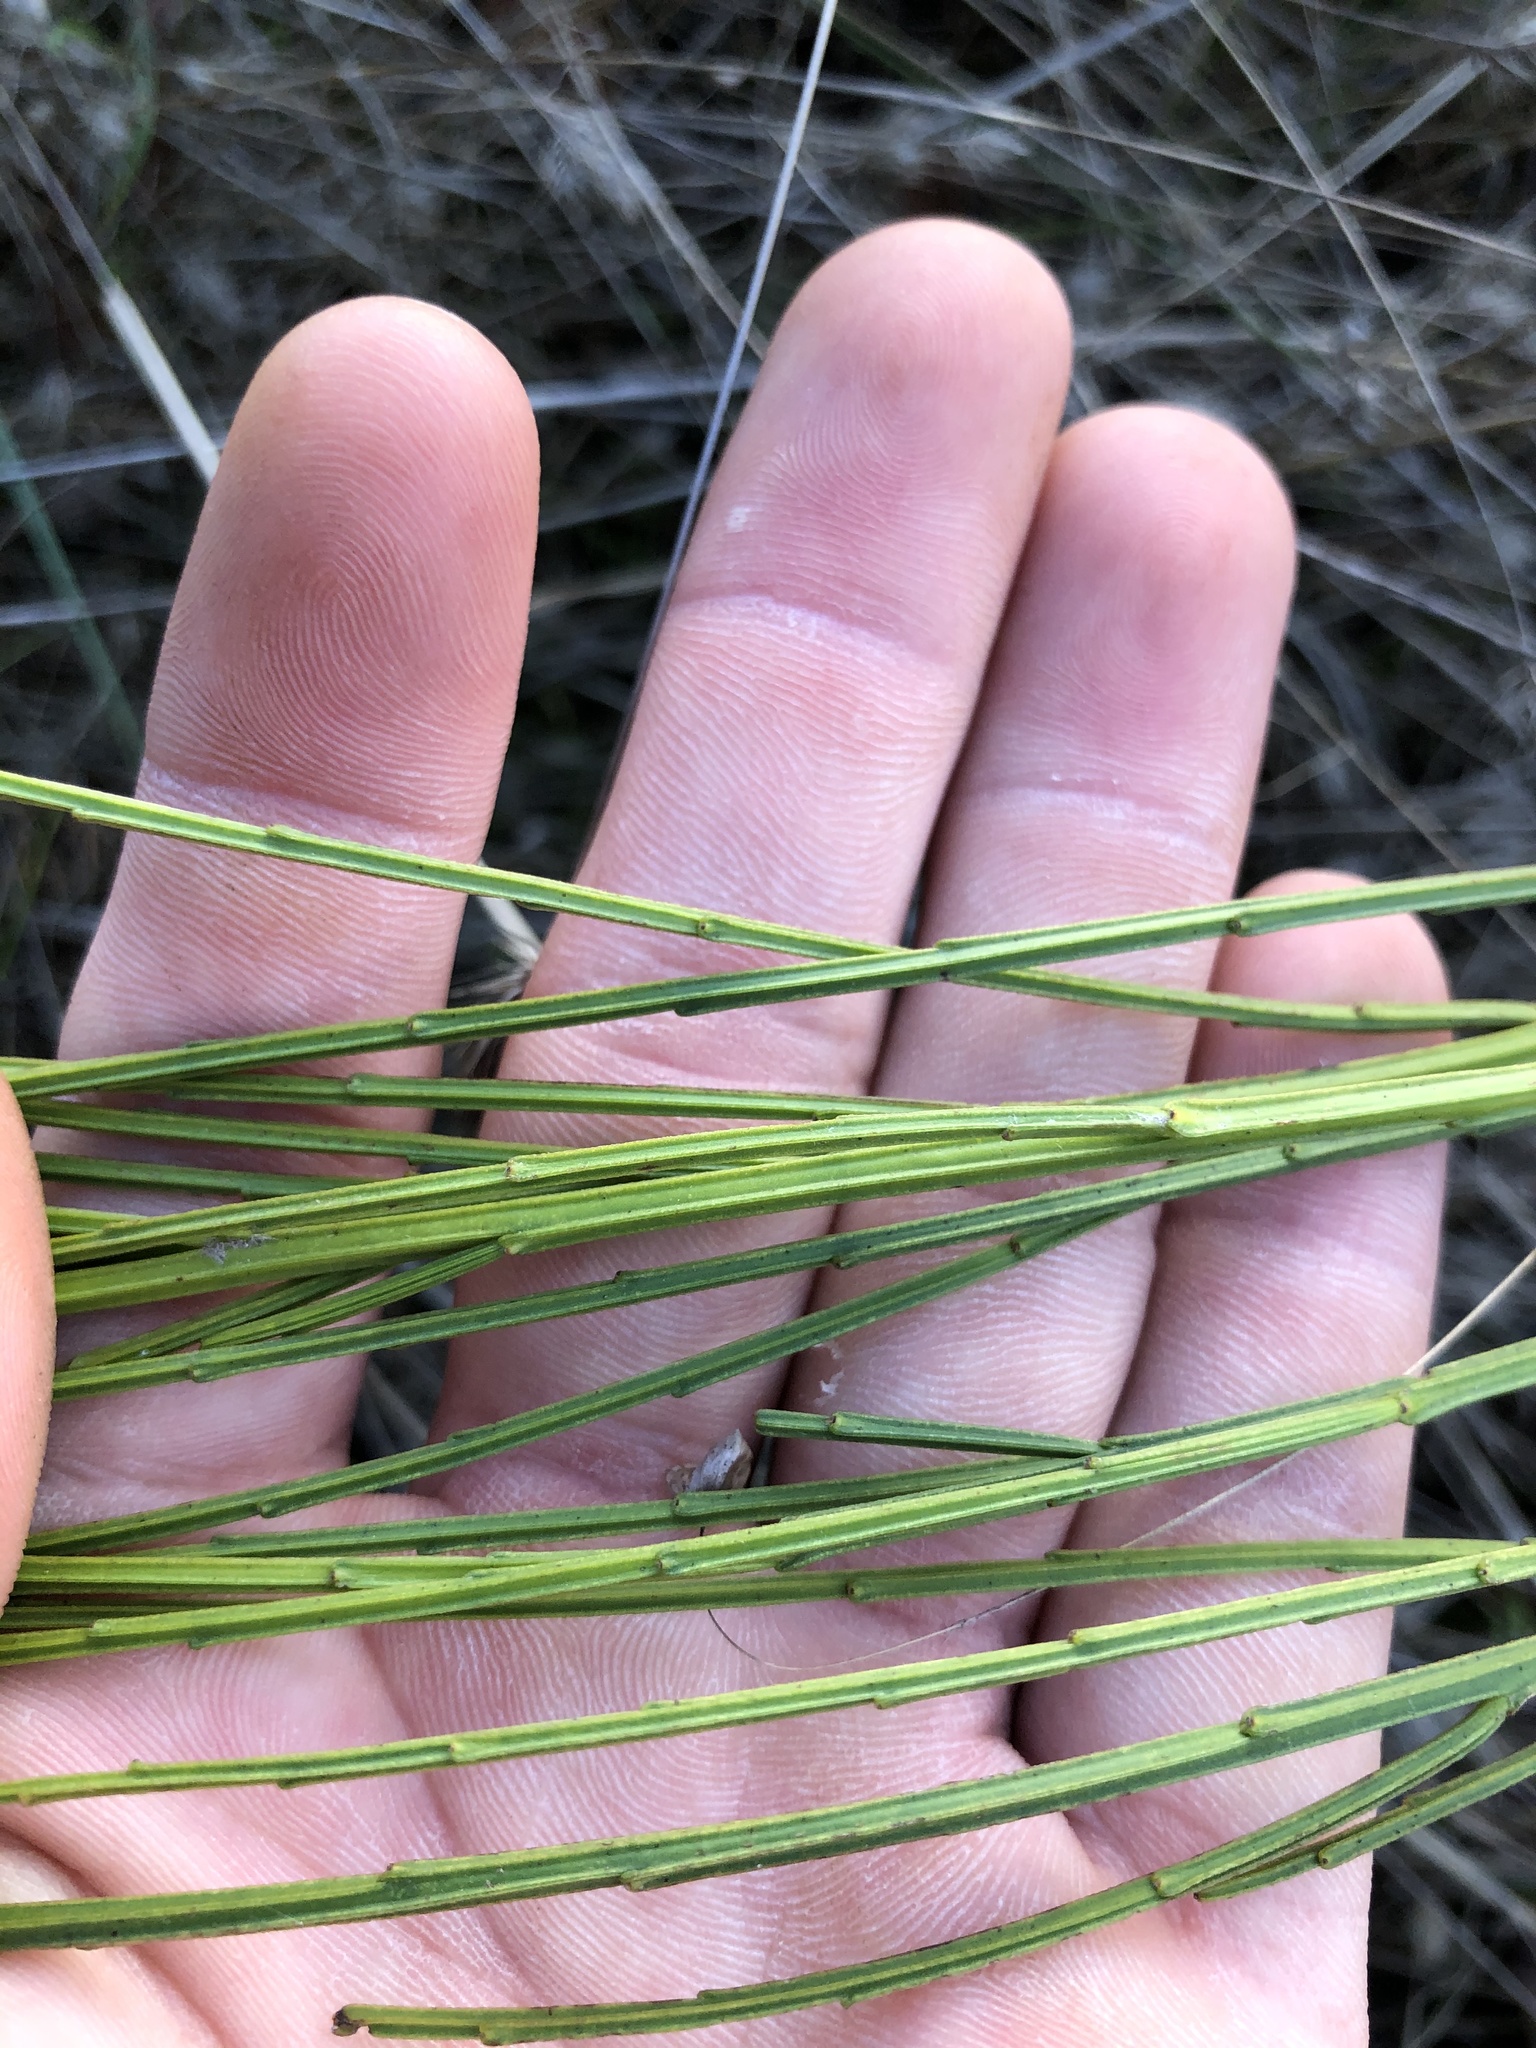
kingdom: Plantae
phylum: Tracheophyta
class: Magnoliopsida
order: Fabales
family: Fabaceae
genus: Cytisus
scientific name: Cytisus scoparius
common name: Scotch broom
